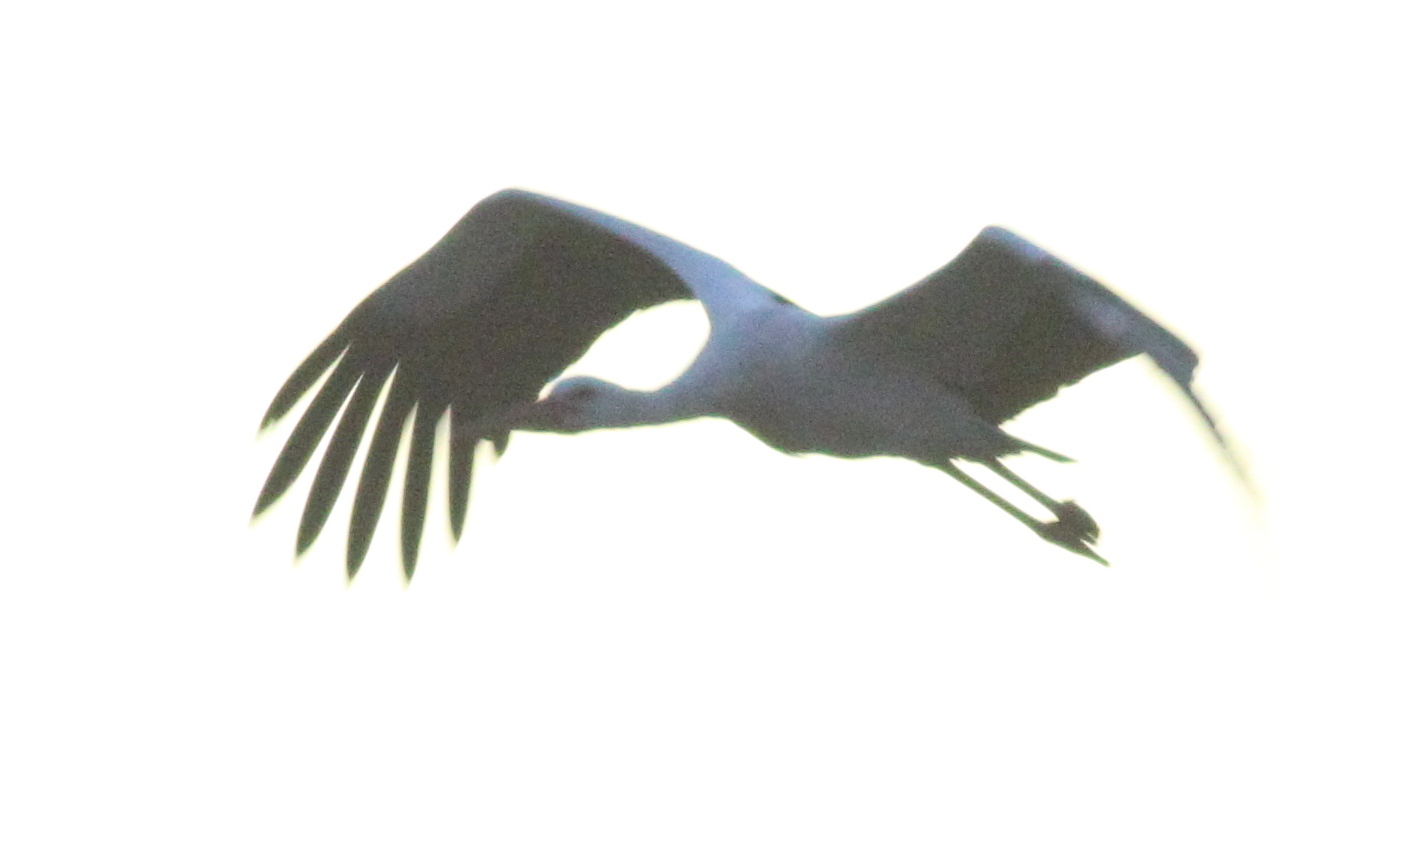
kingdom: Animalia
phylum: Chordata
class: Aves
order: Ciconiiformes
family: Ciconiidae
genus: Ciconia
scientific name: Ciconia ciconia
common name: White stork
